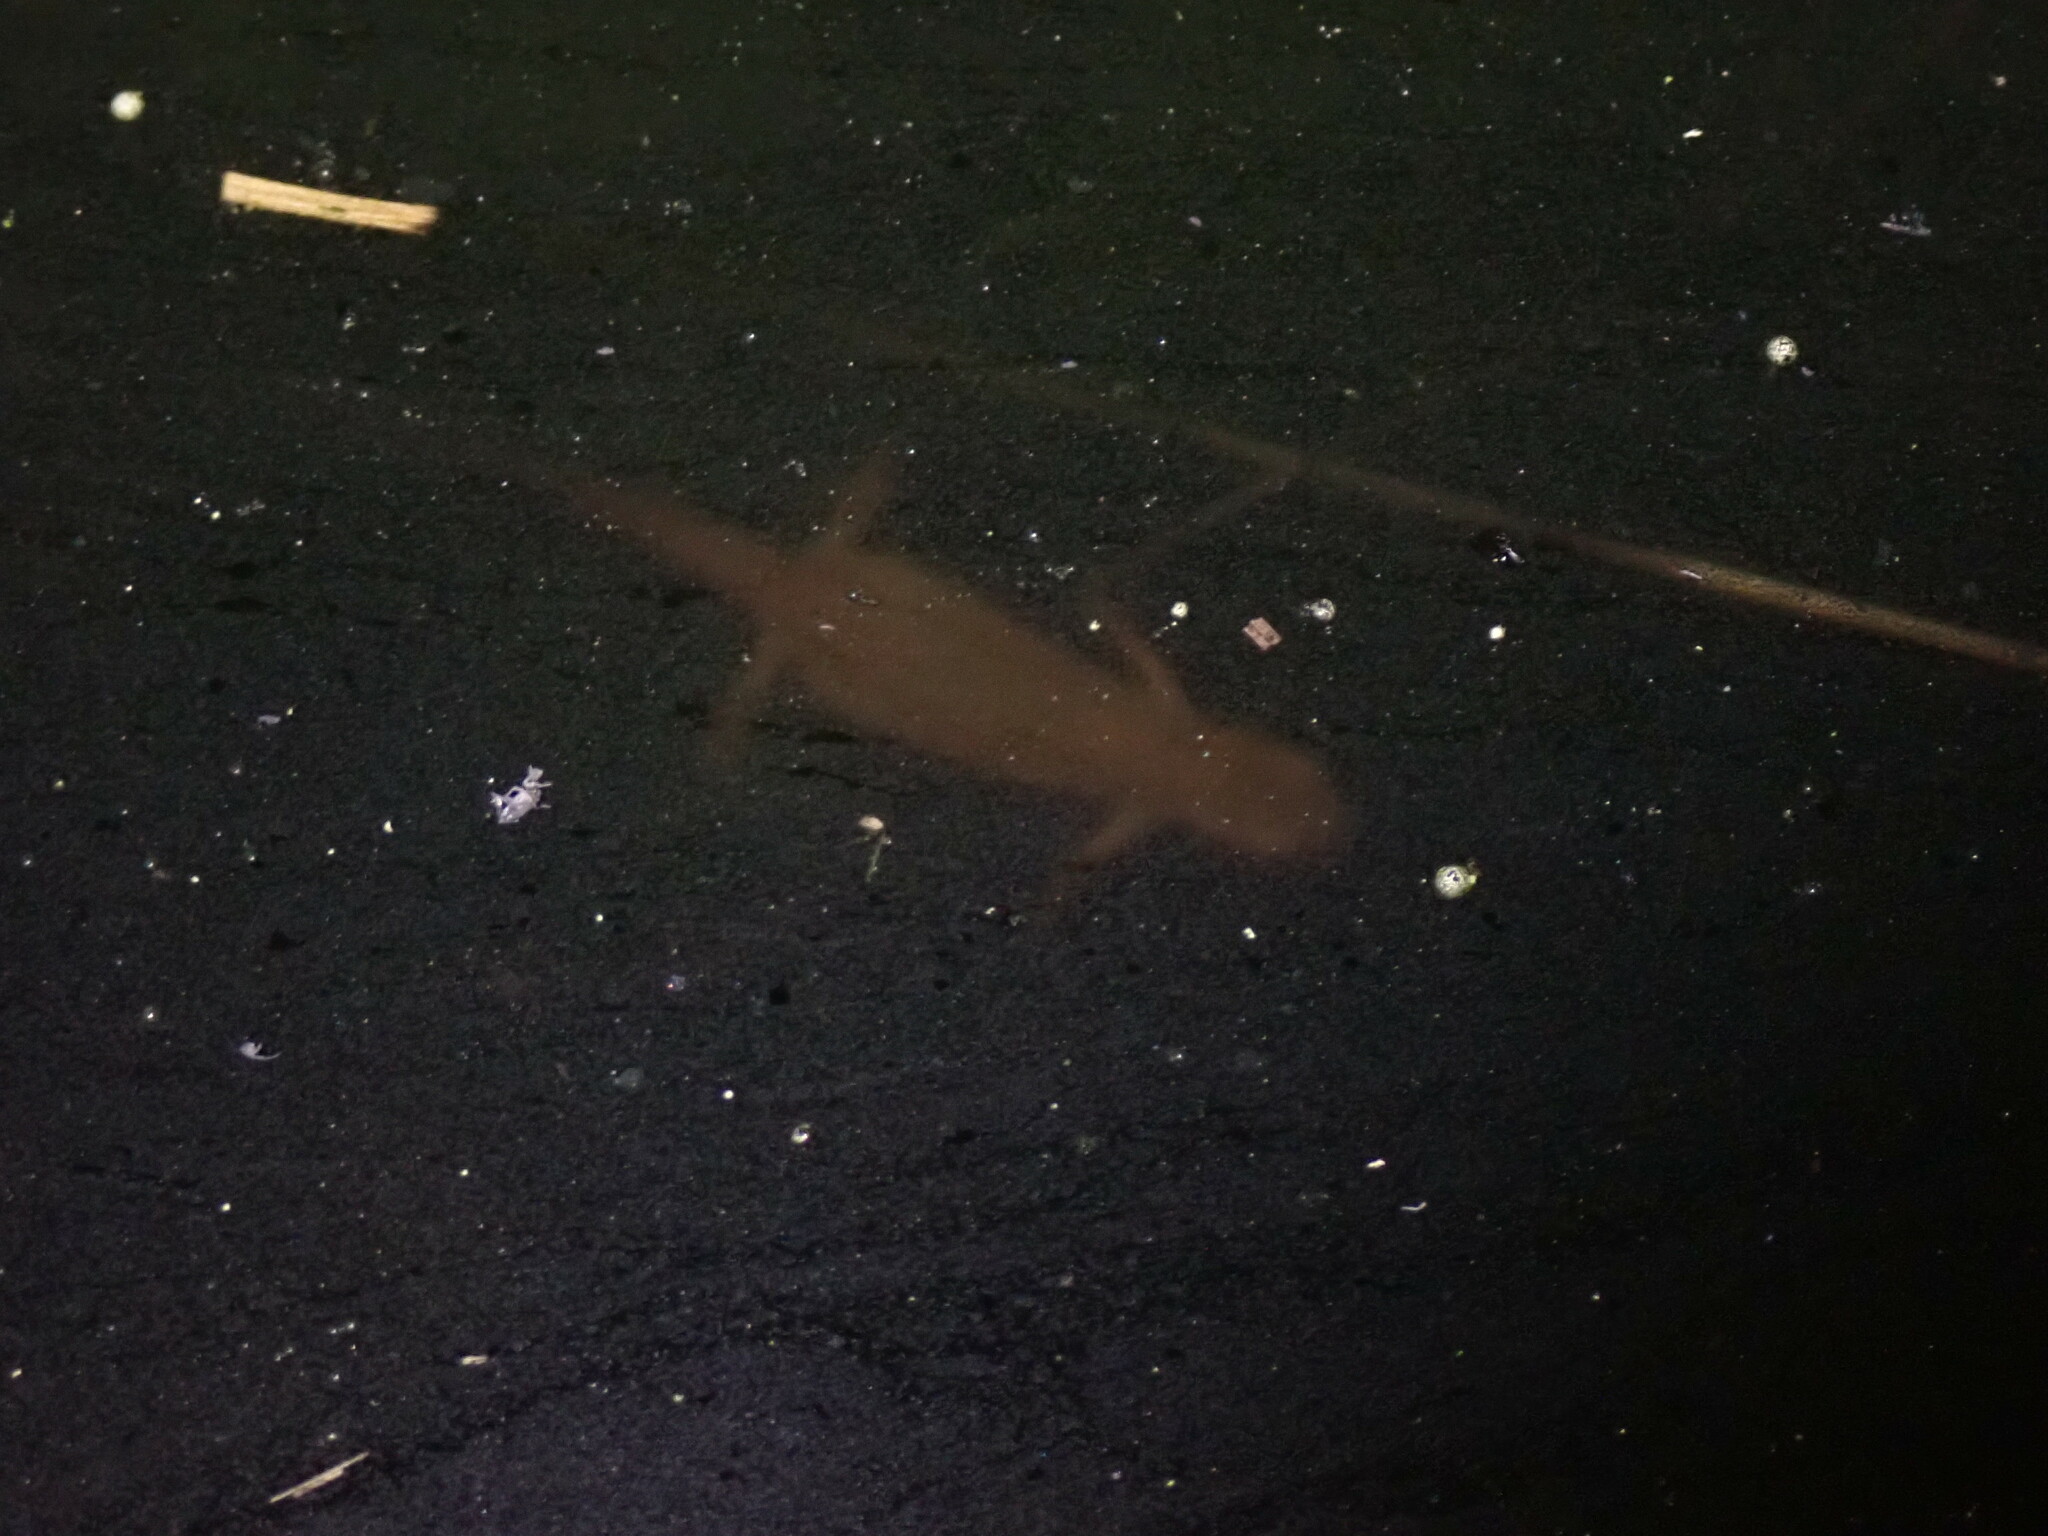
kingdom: Animalia
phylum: Chordata
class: Amphibia
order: Caudata
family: Salamandridae
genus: Lissotriton
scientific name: Lissotriton helveticus
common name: Palmate newt
